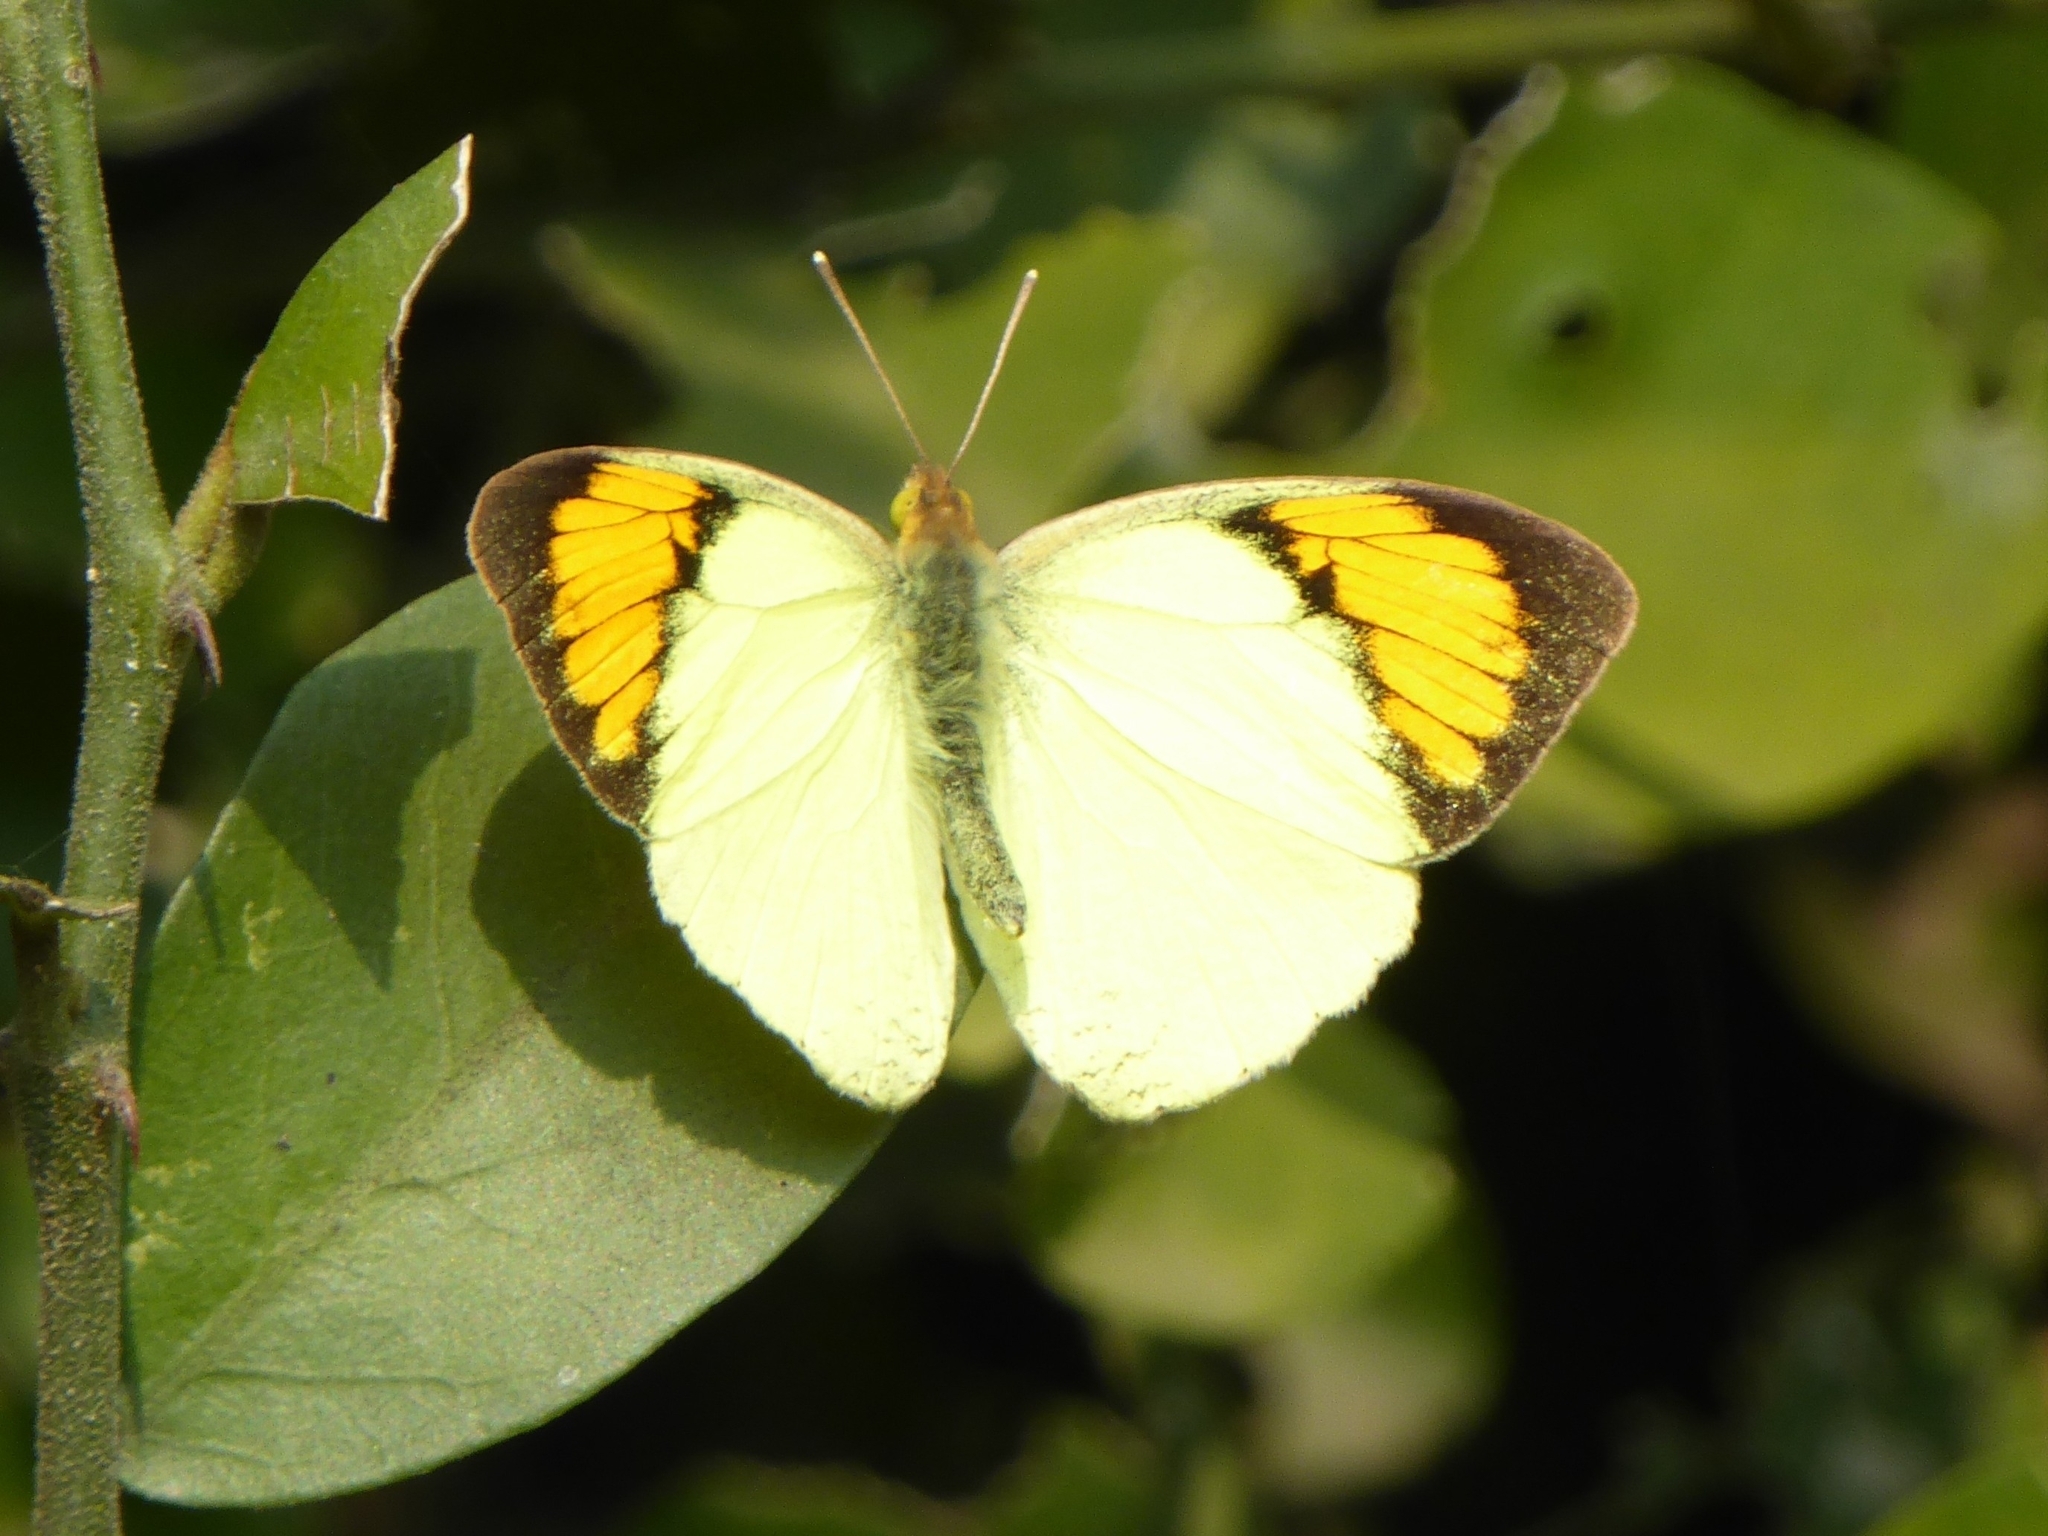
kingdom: Animalia
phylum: Arthropoda
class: Insecta
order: Lepidoptera
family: Pieridae
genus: Ixias
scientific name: Ixias pyrene
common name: Yellow orange tip
